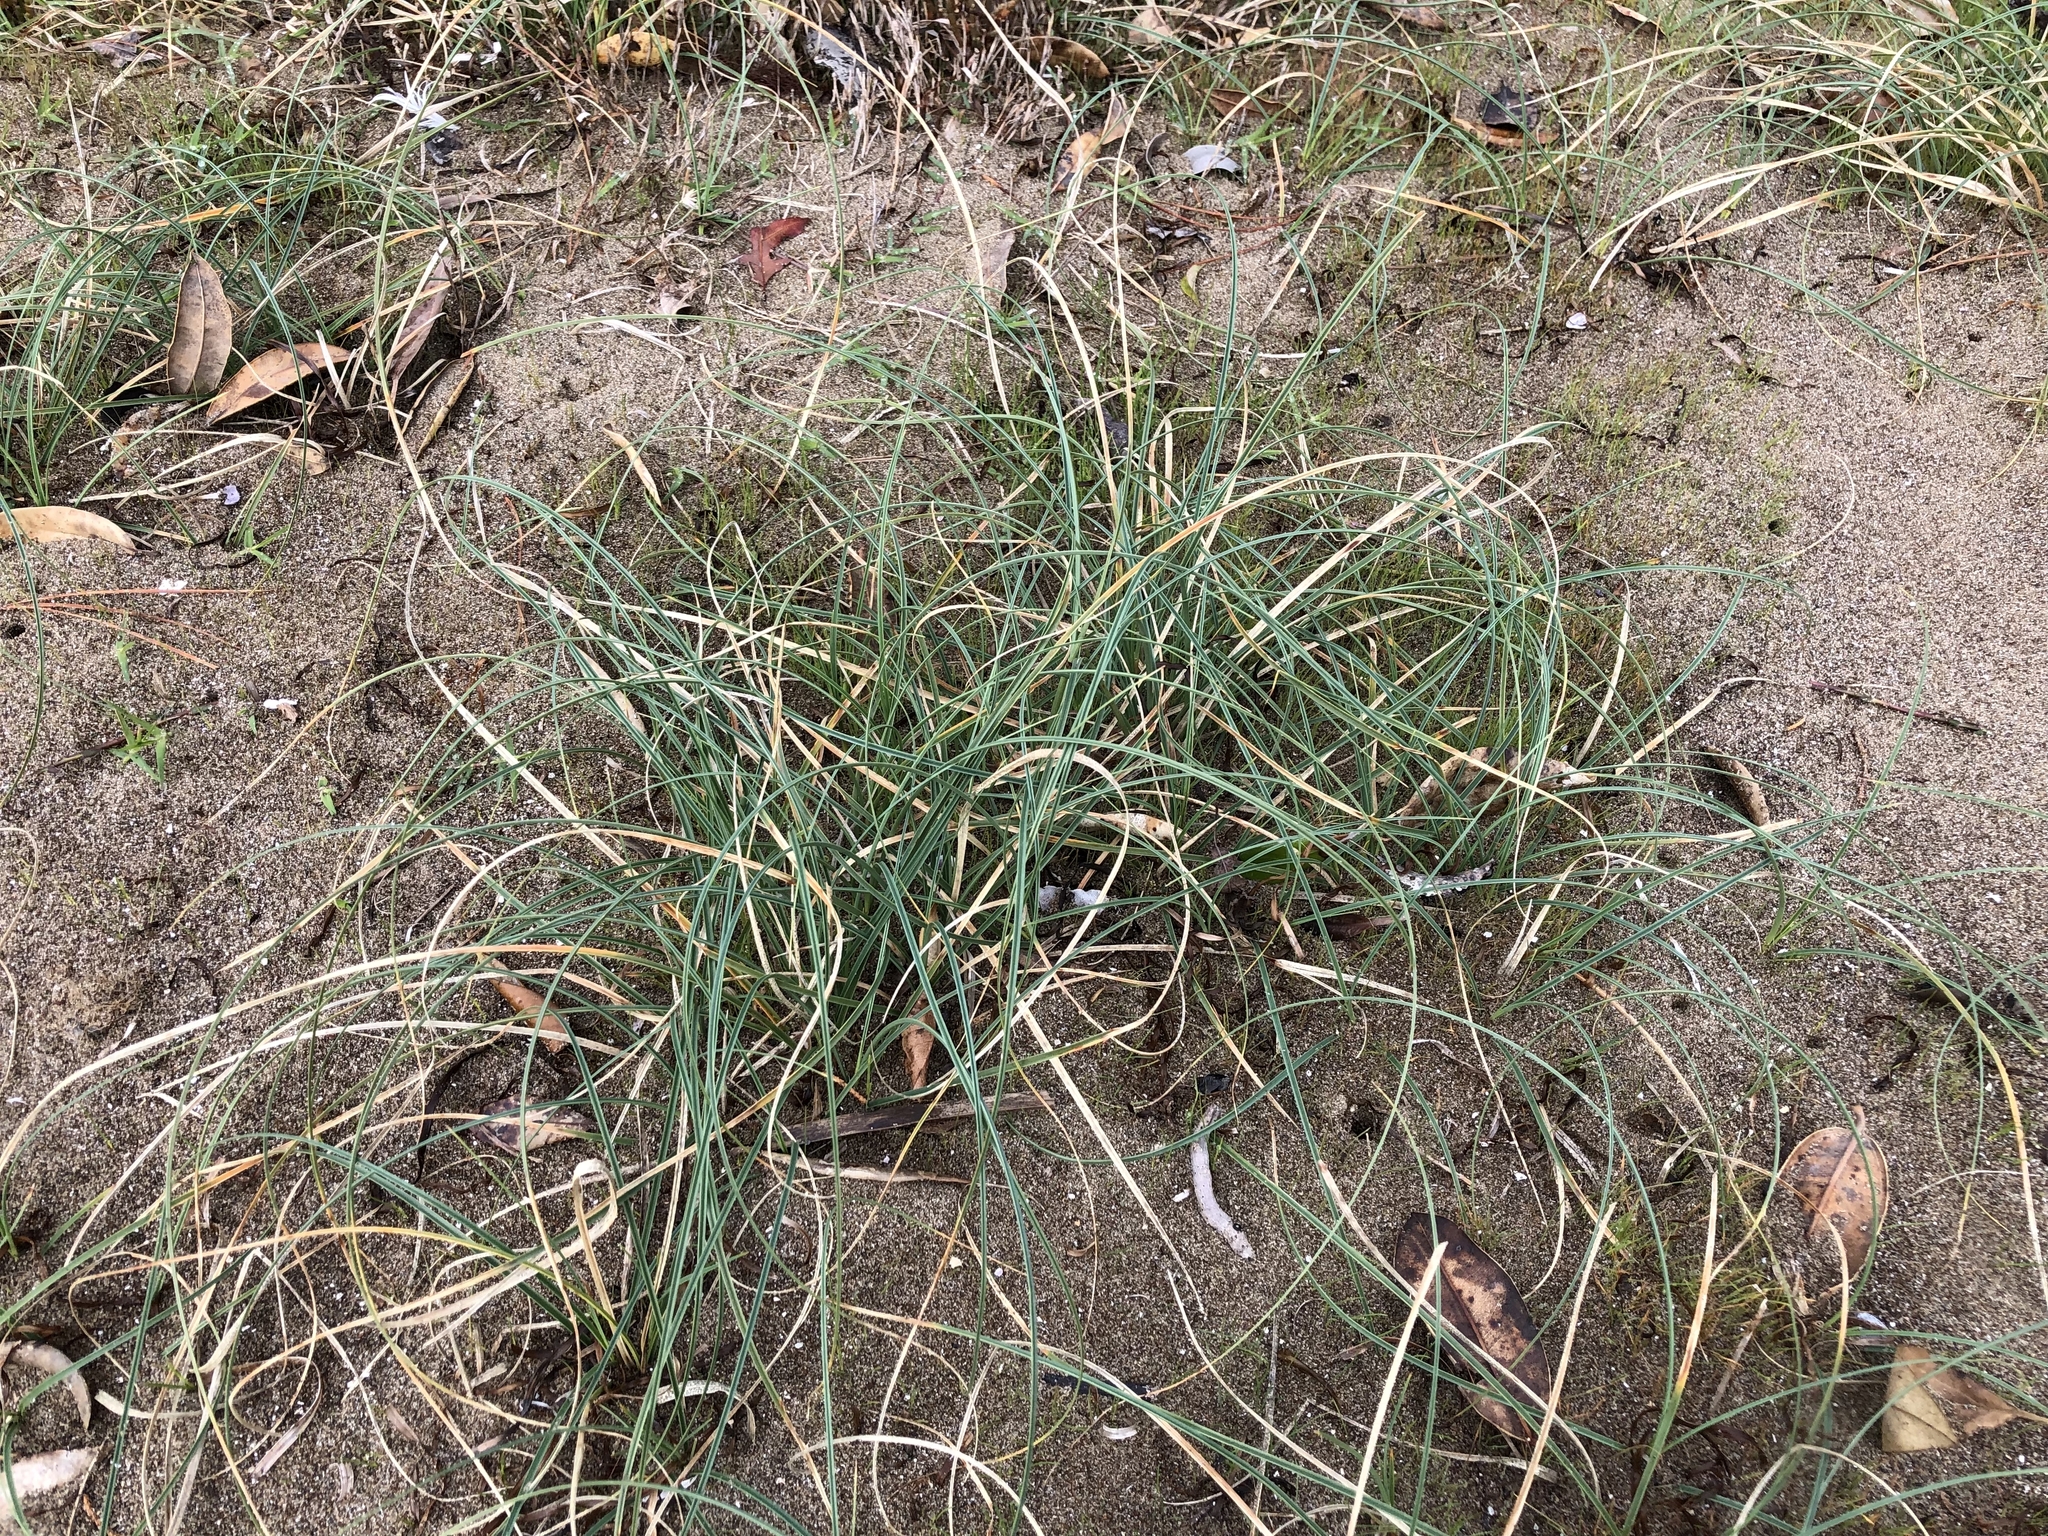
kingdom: Plantae
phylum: Tracheophyta
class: Liliopsida
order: Poales
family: Cyperaceae
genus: Carex
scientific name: Carex pumila
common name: Dwarf sedge
